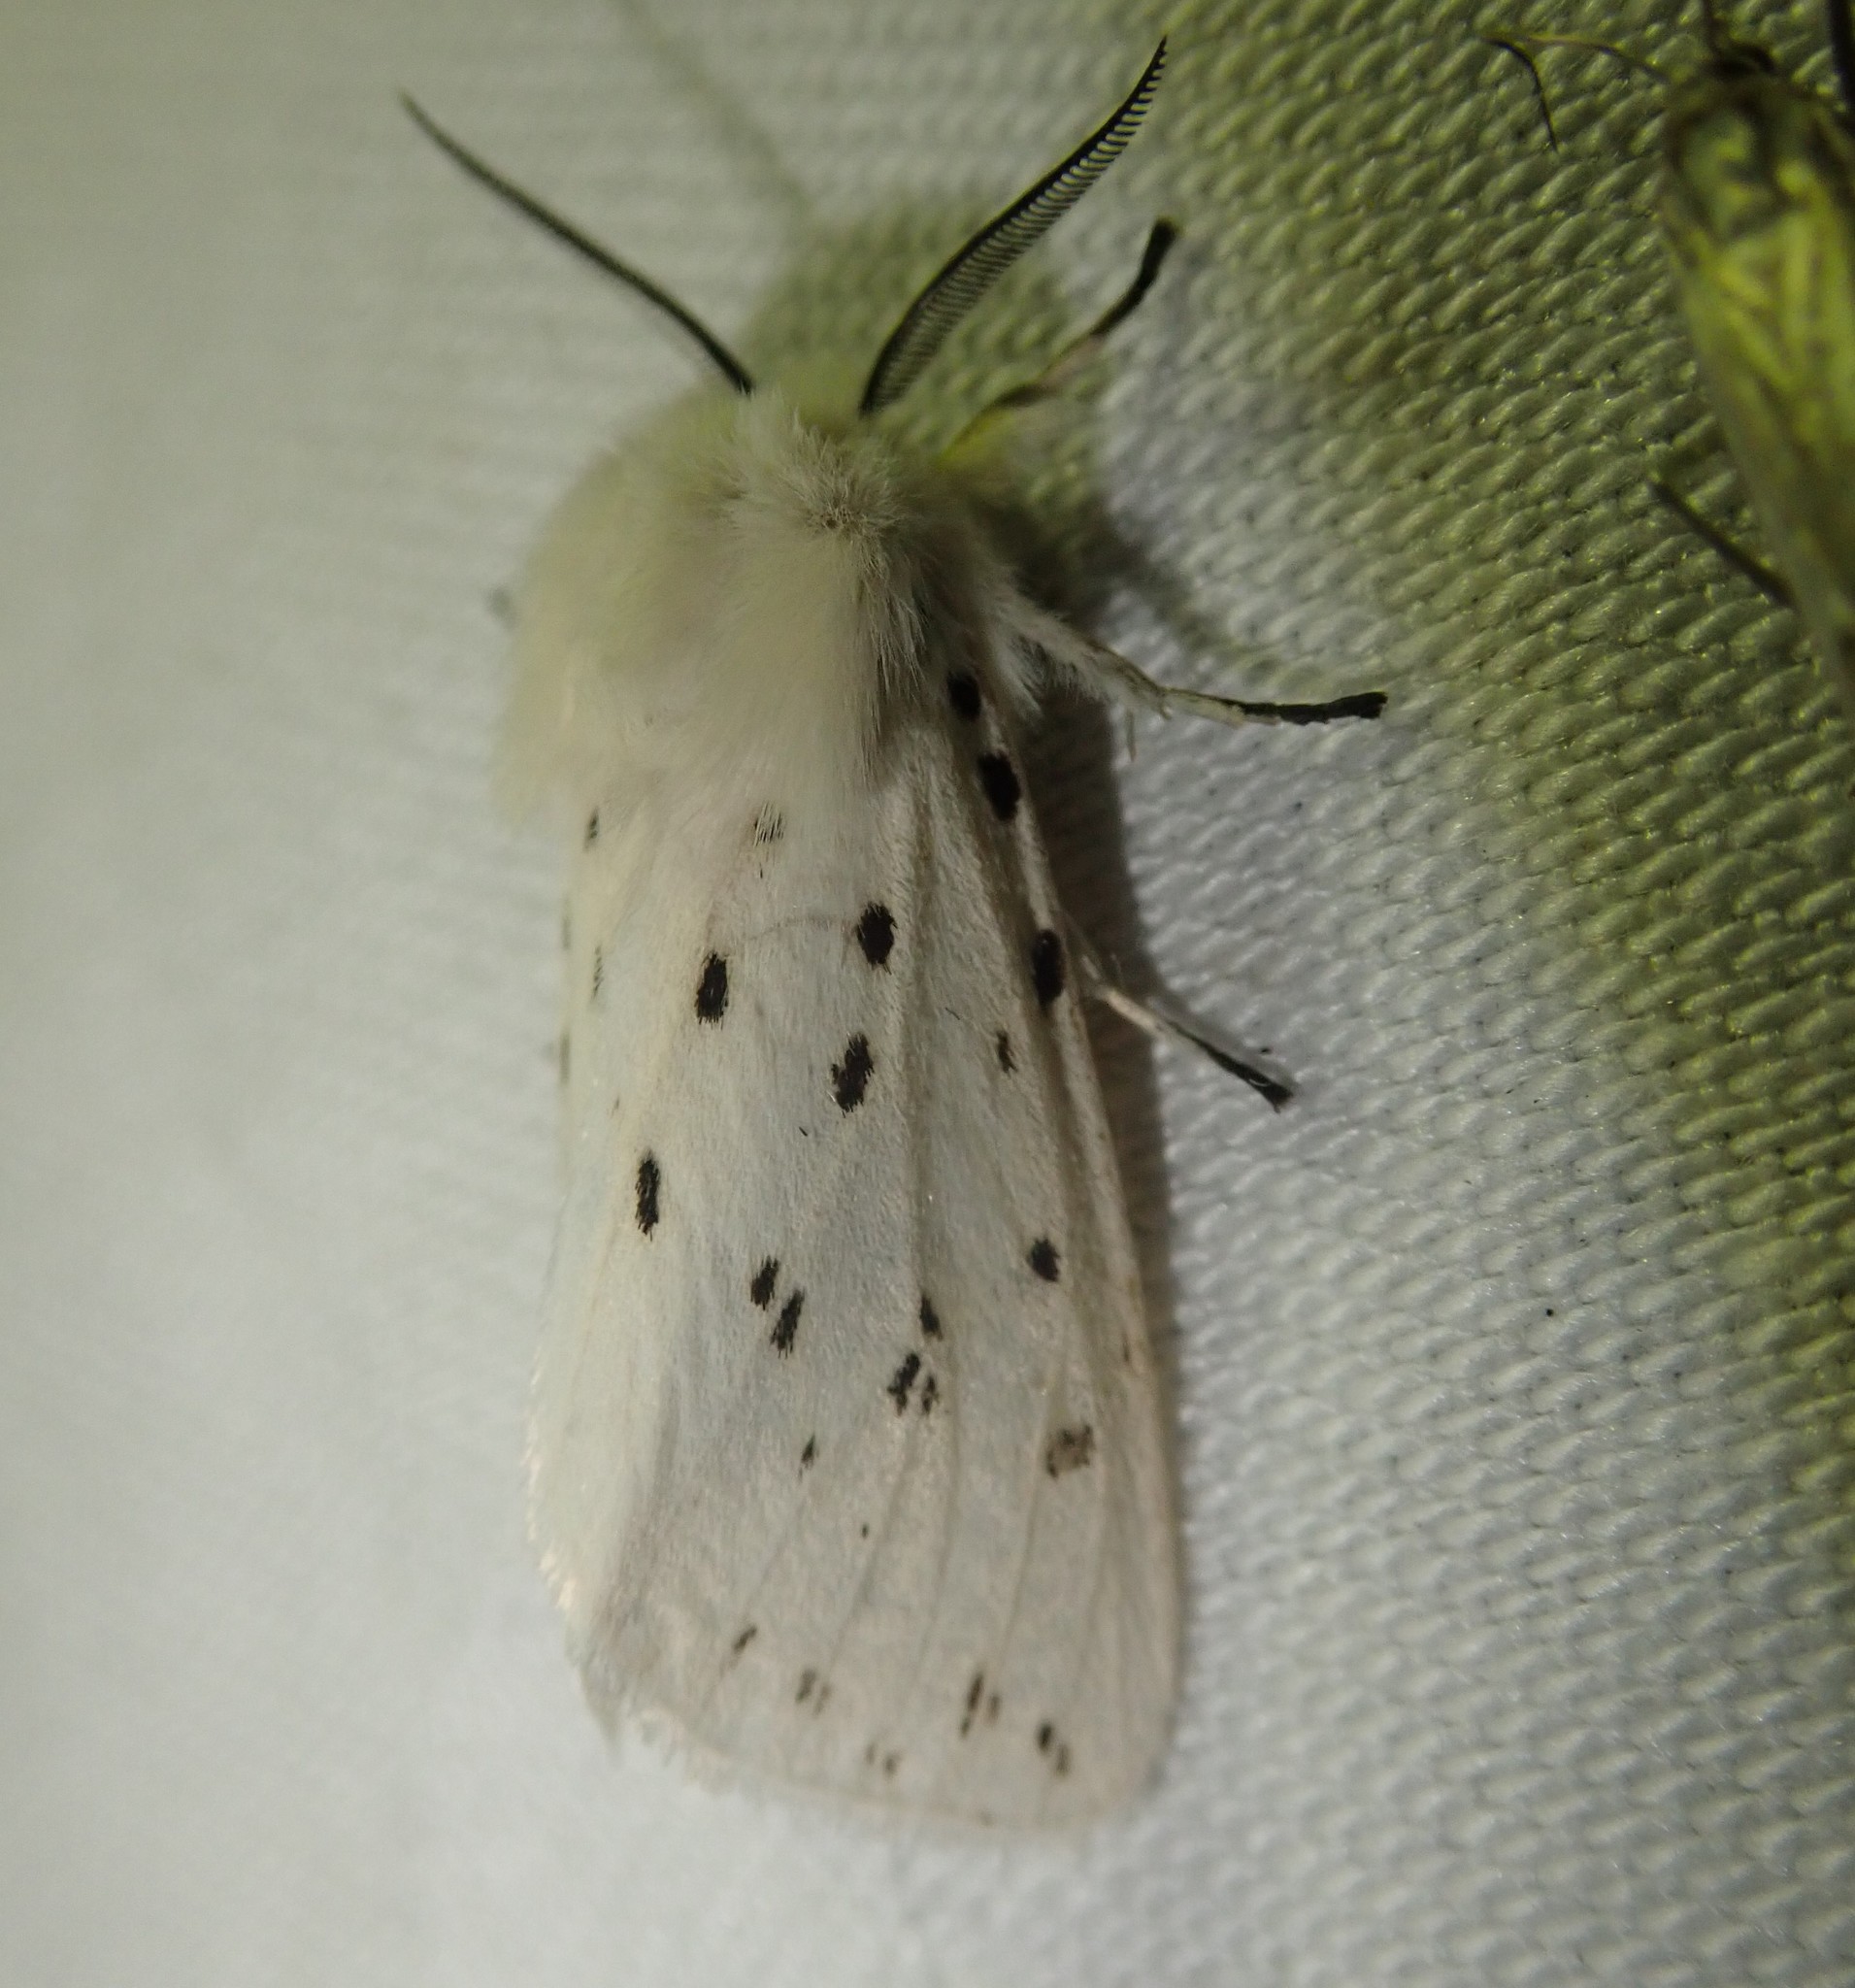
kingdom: Animalia
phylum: Arthropoda
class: Insecta
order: Lepidoptera
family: Erebidae
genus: Spilosoma
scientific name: Spilosoma lubricipeda
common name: White ermine
